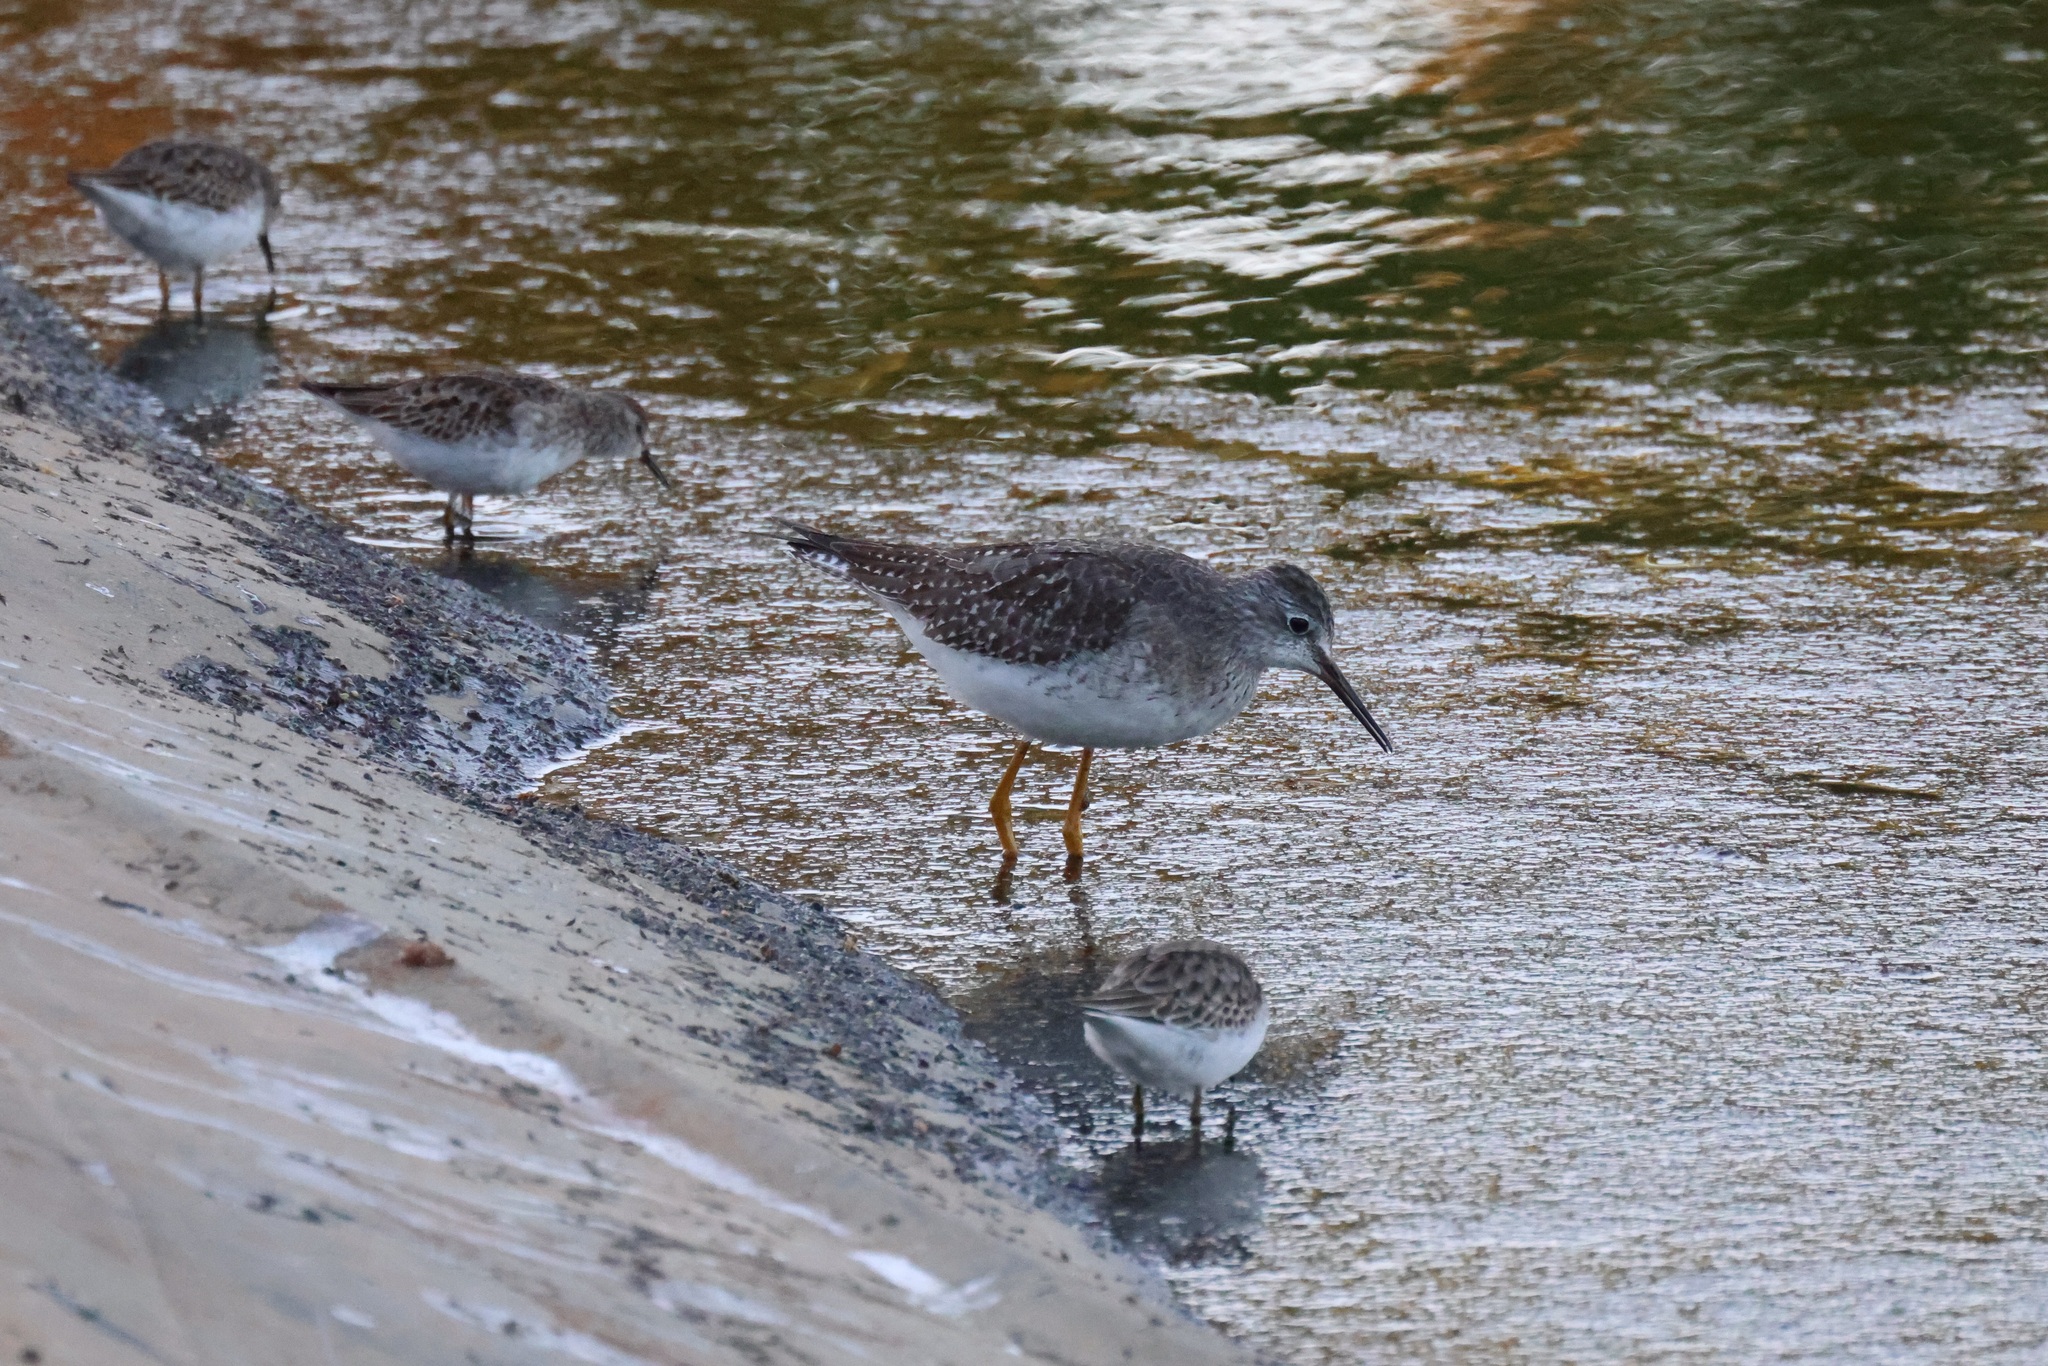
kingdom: Animalia
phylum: Chordata
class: Aves
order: Charadriiformes
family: Scolopacidae
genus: Tringa
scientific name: Tringa flavipes
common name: Lesser yellowlegs
